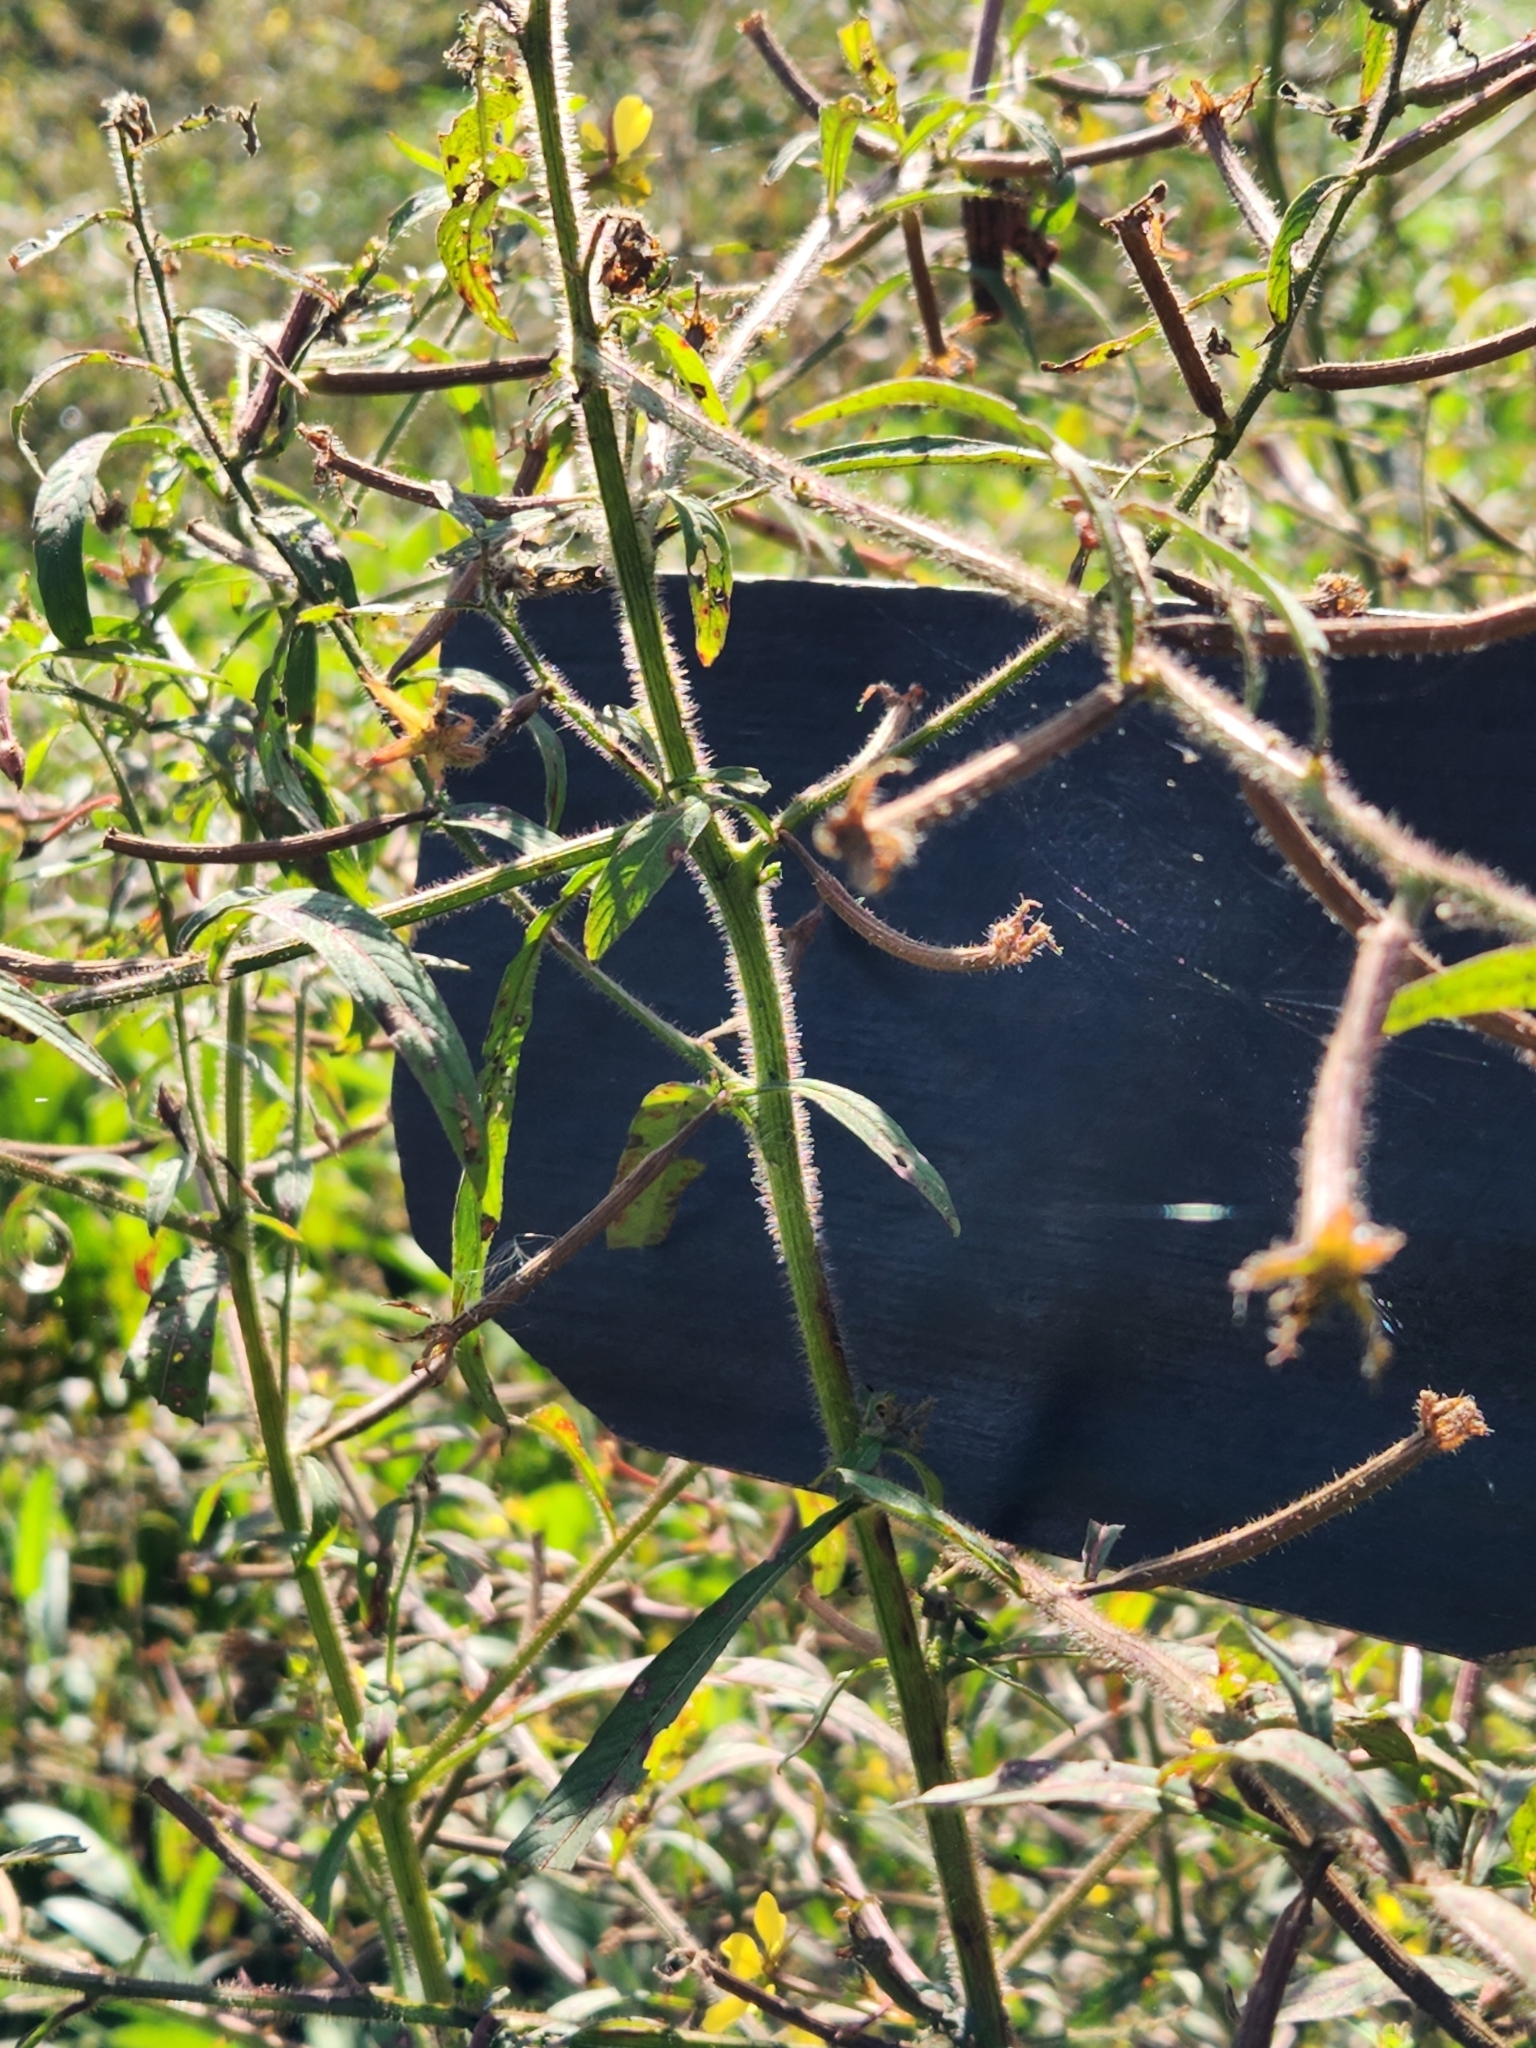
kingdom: Plantae
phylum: Tracheophyta
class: Magnoliopsida
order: Myrtales
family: Onagraceae
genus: Ludwigia
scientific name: Ludwigia leptocarpa
